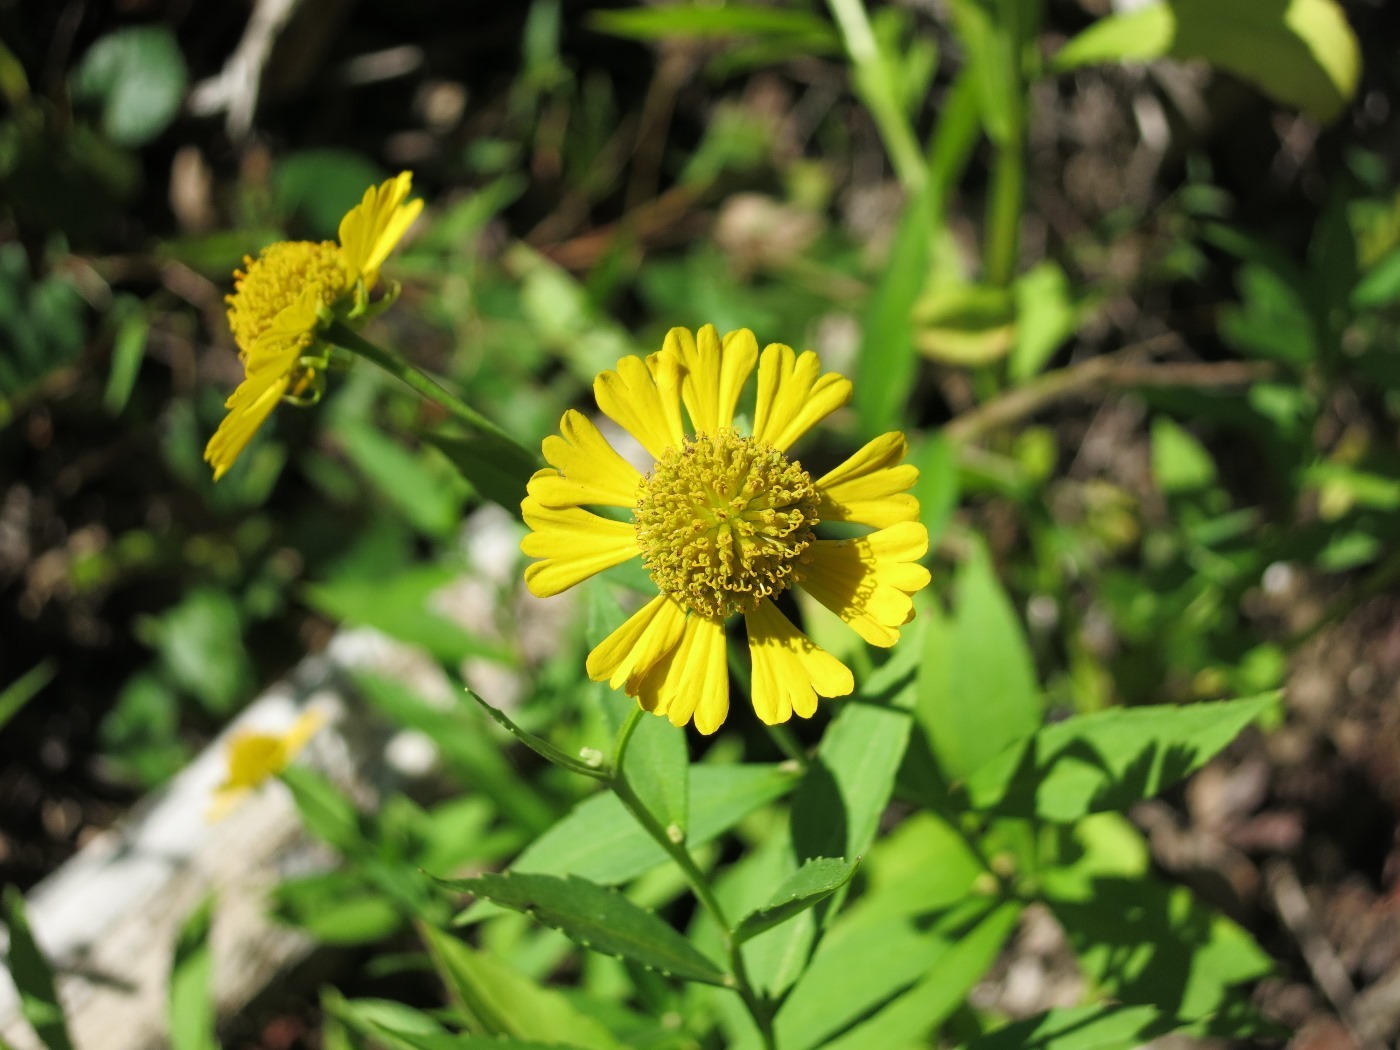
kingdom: Plantae
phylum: Tracheophyta
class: Magnoliopsida
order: Asterales
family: Asteraceae
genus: Helenium
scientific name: Helenium autumnale
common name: Sneezeweed
